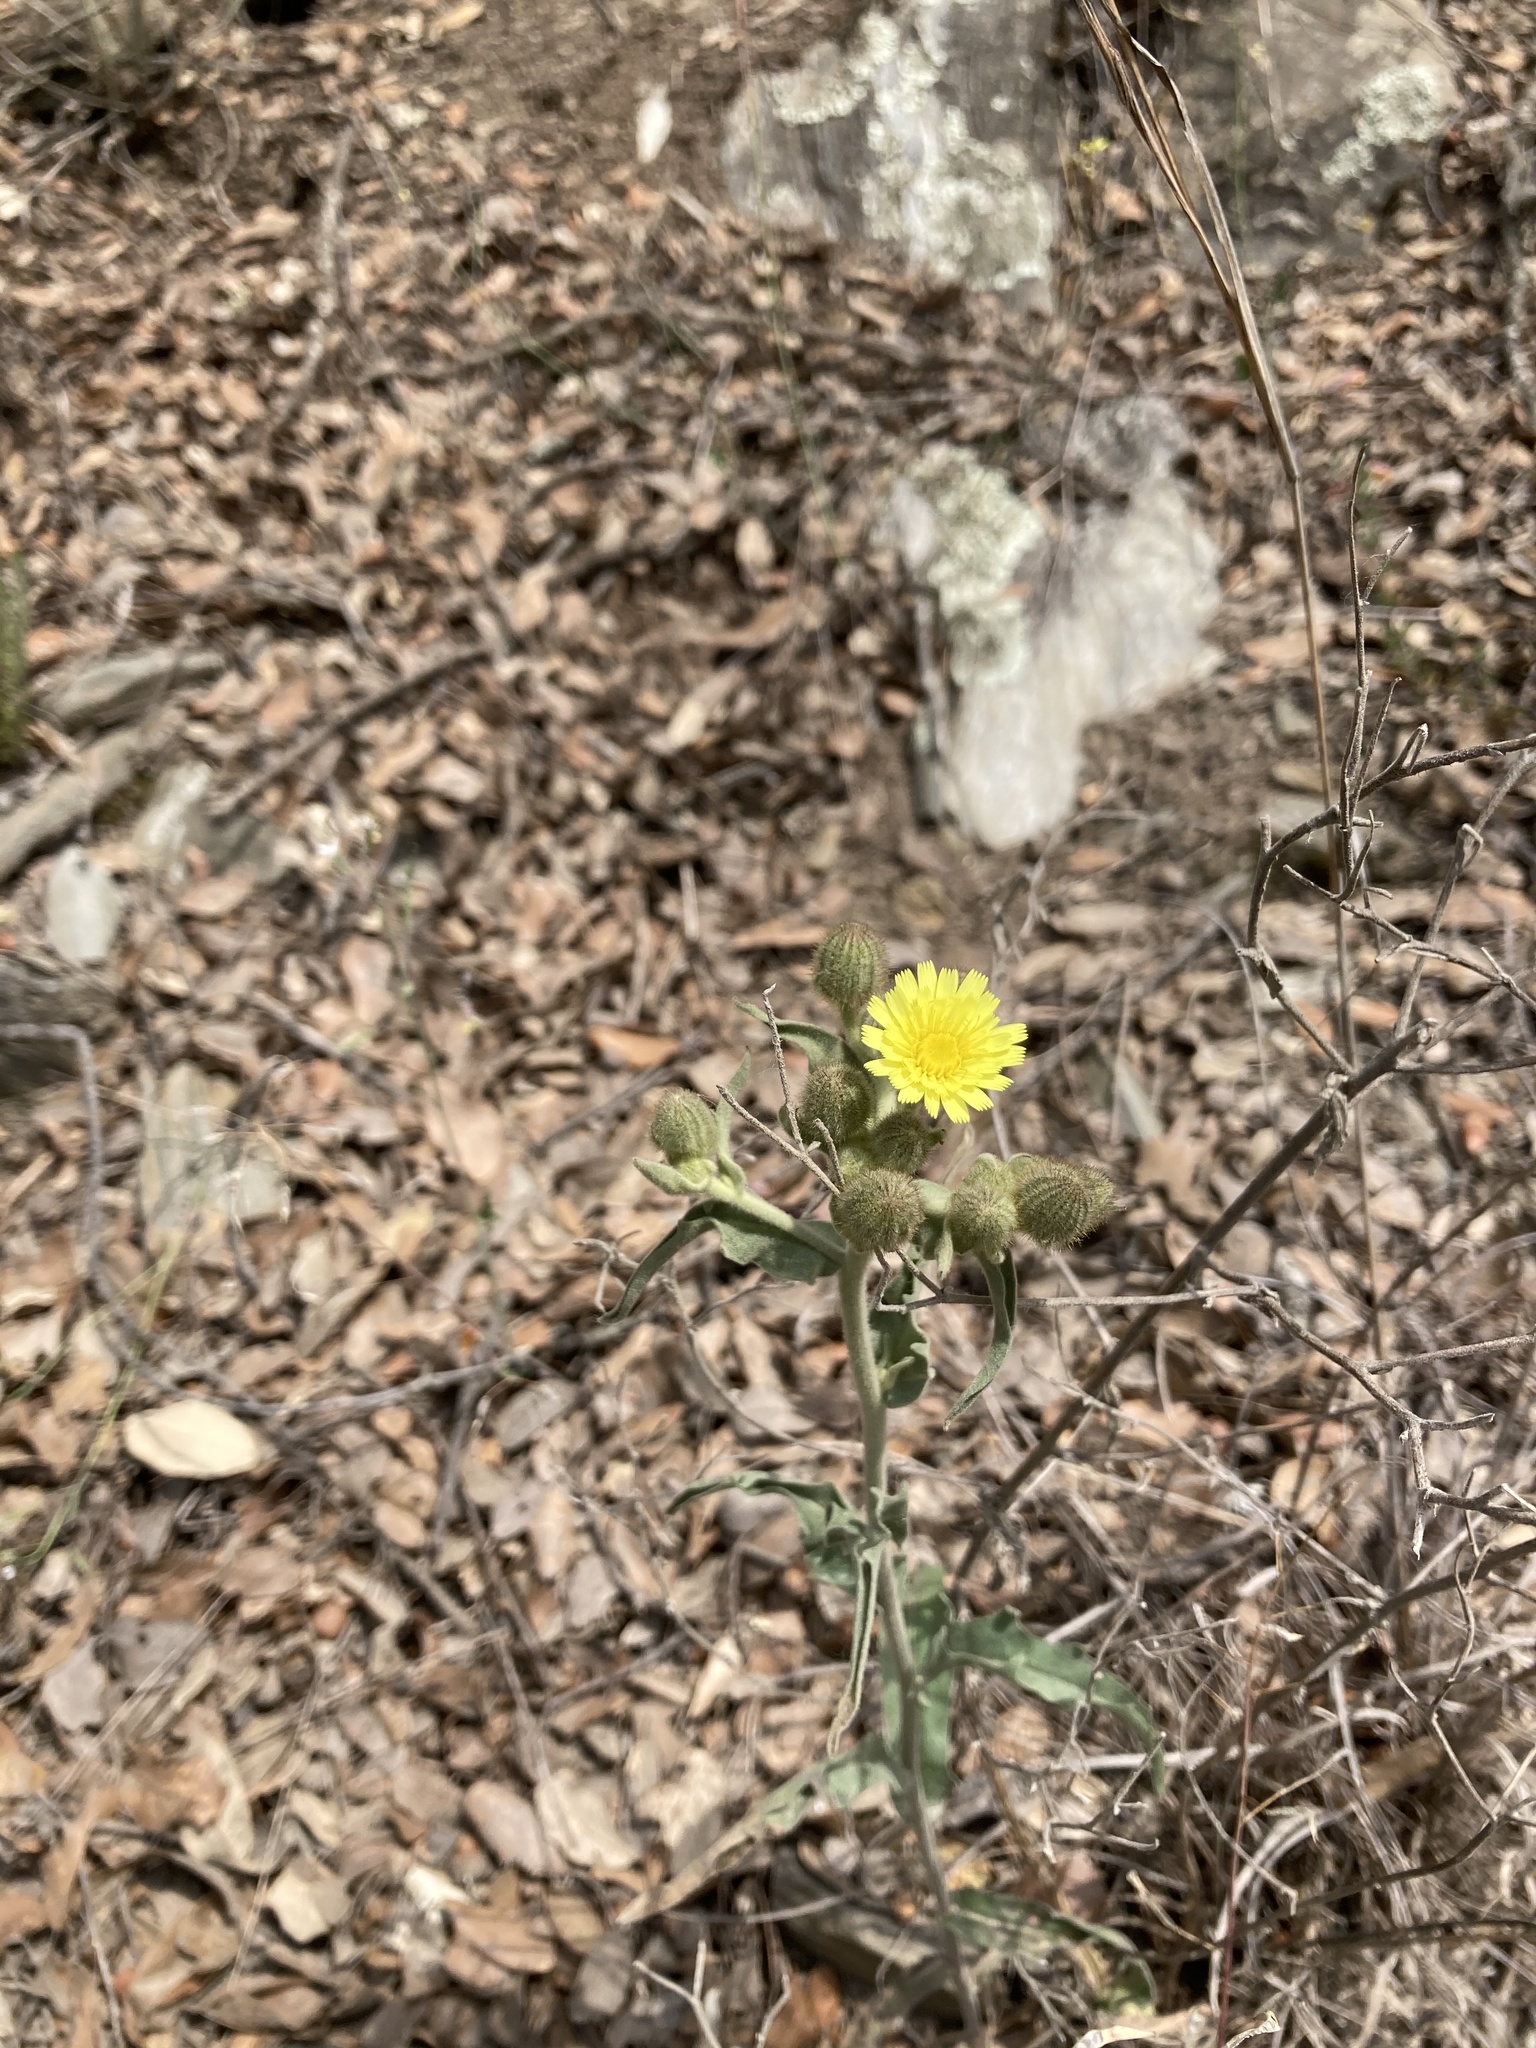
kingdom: Plantae
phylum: Tracheophyta
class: Magnoliopsida
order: Asterales
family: Asteraceae
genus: Andryala
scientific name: Andryala integrifolia
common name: Common andryala
